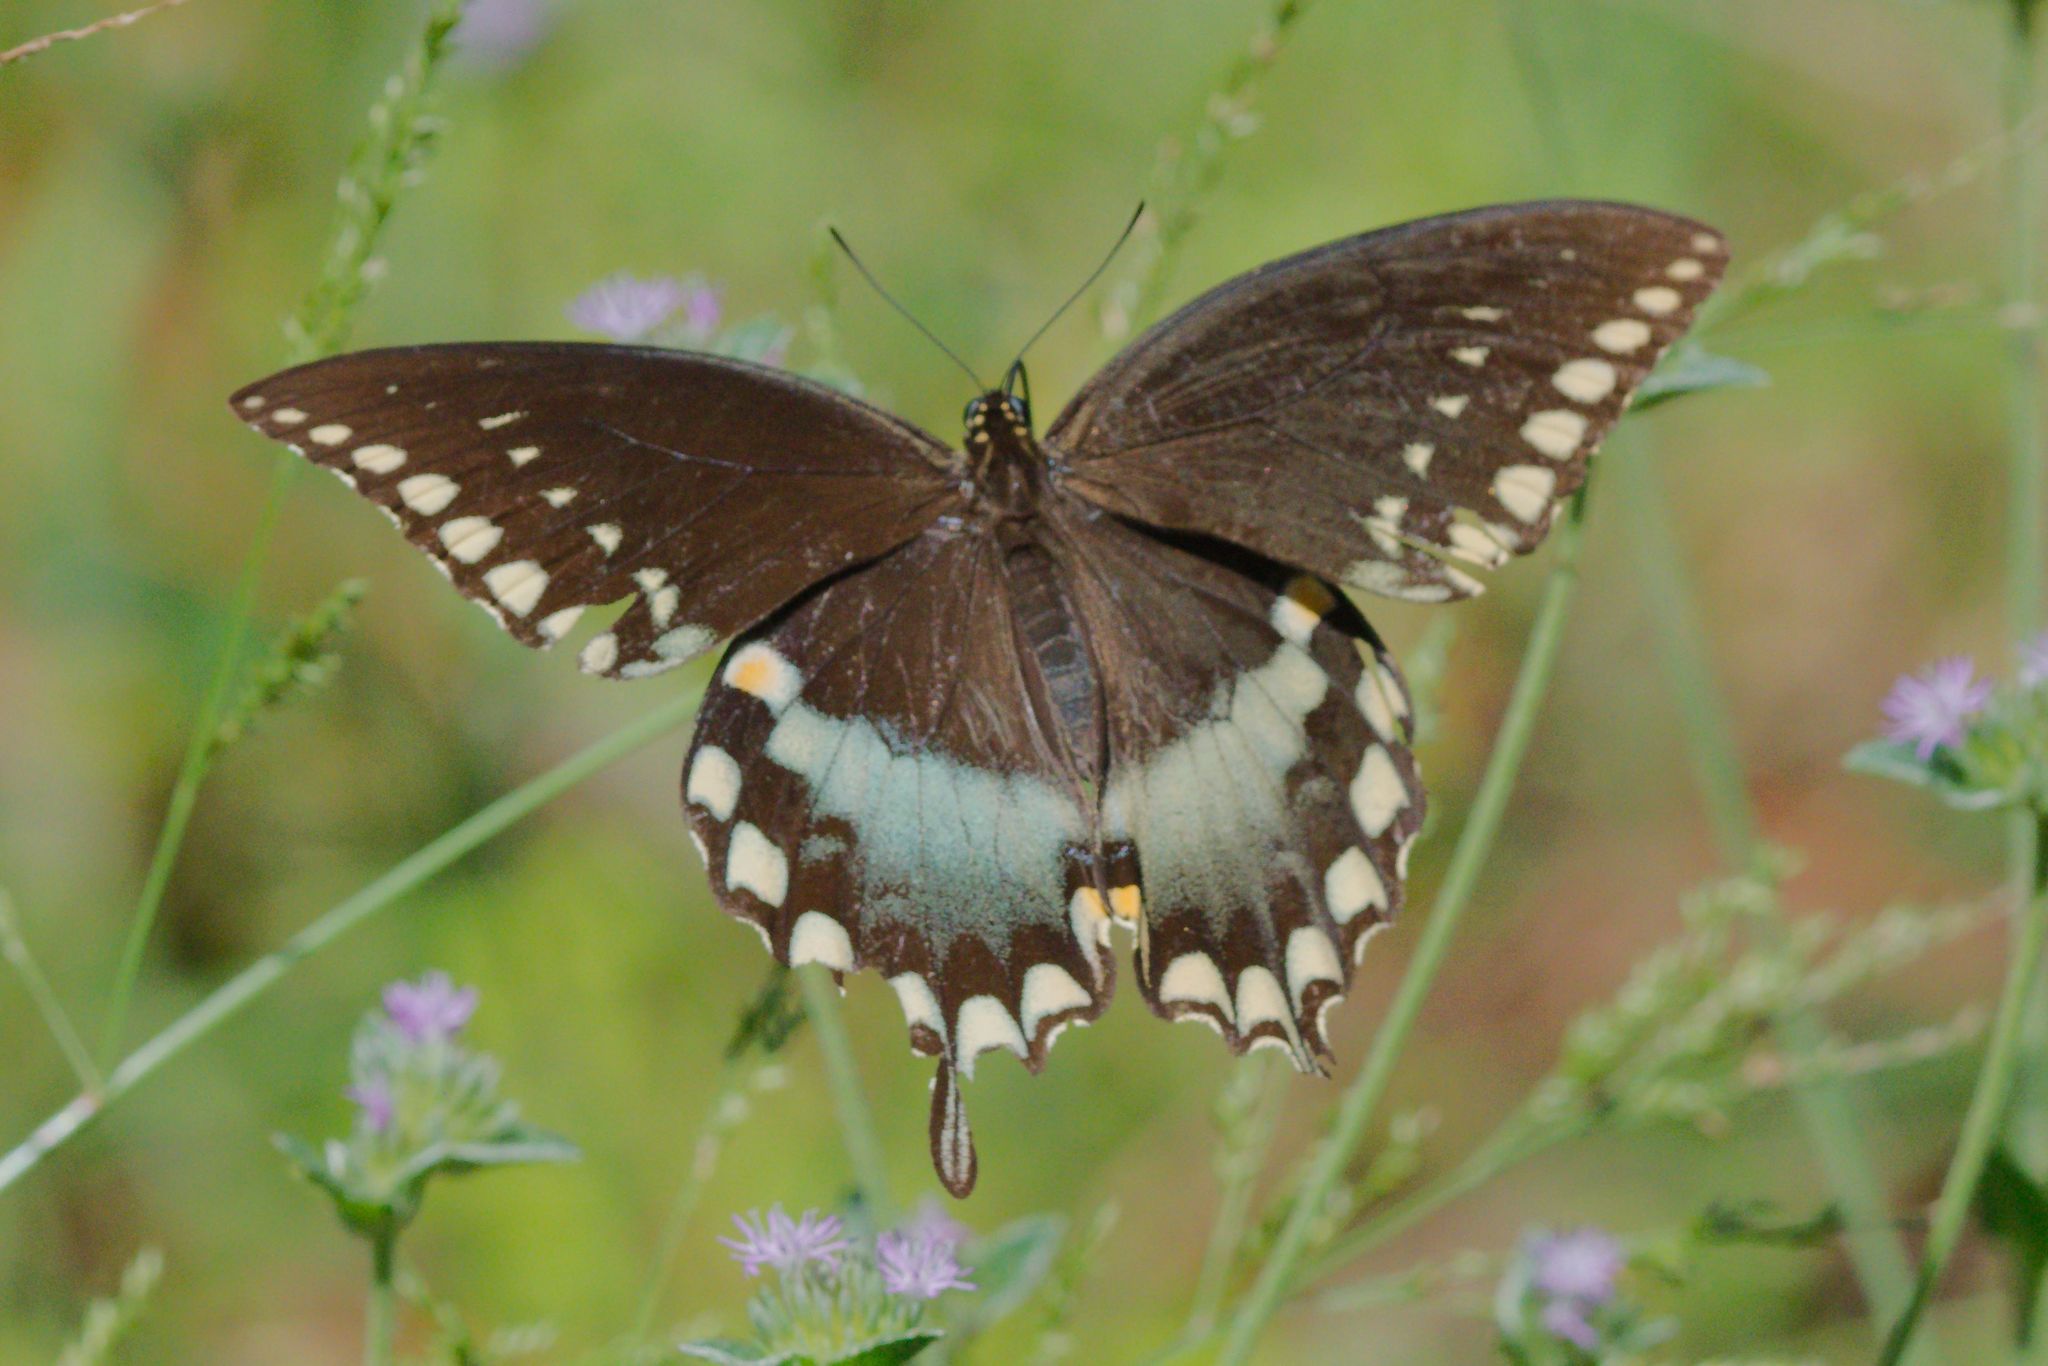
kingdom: Animalia
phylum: Arthropoda
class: Insecta
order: Lepidoptera
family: Papilionidae
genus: Papilio
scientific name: Papilio troilus
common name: Spicebush swallowtail
